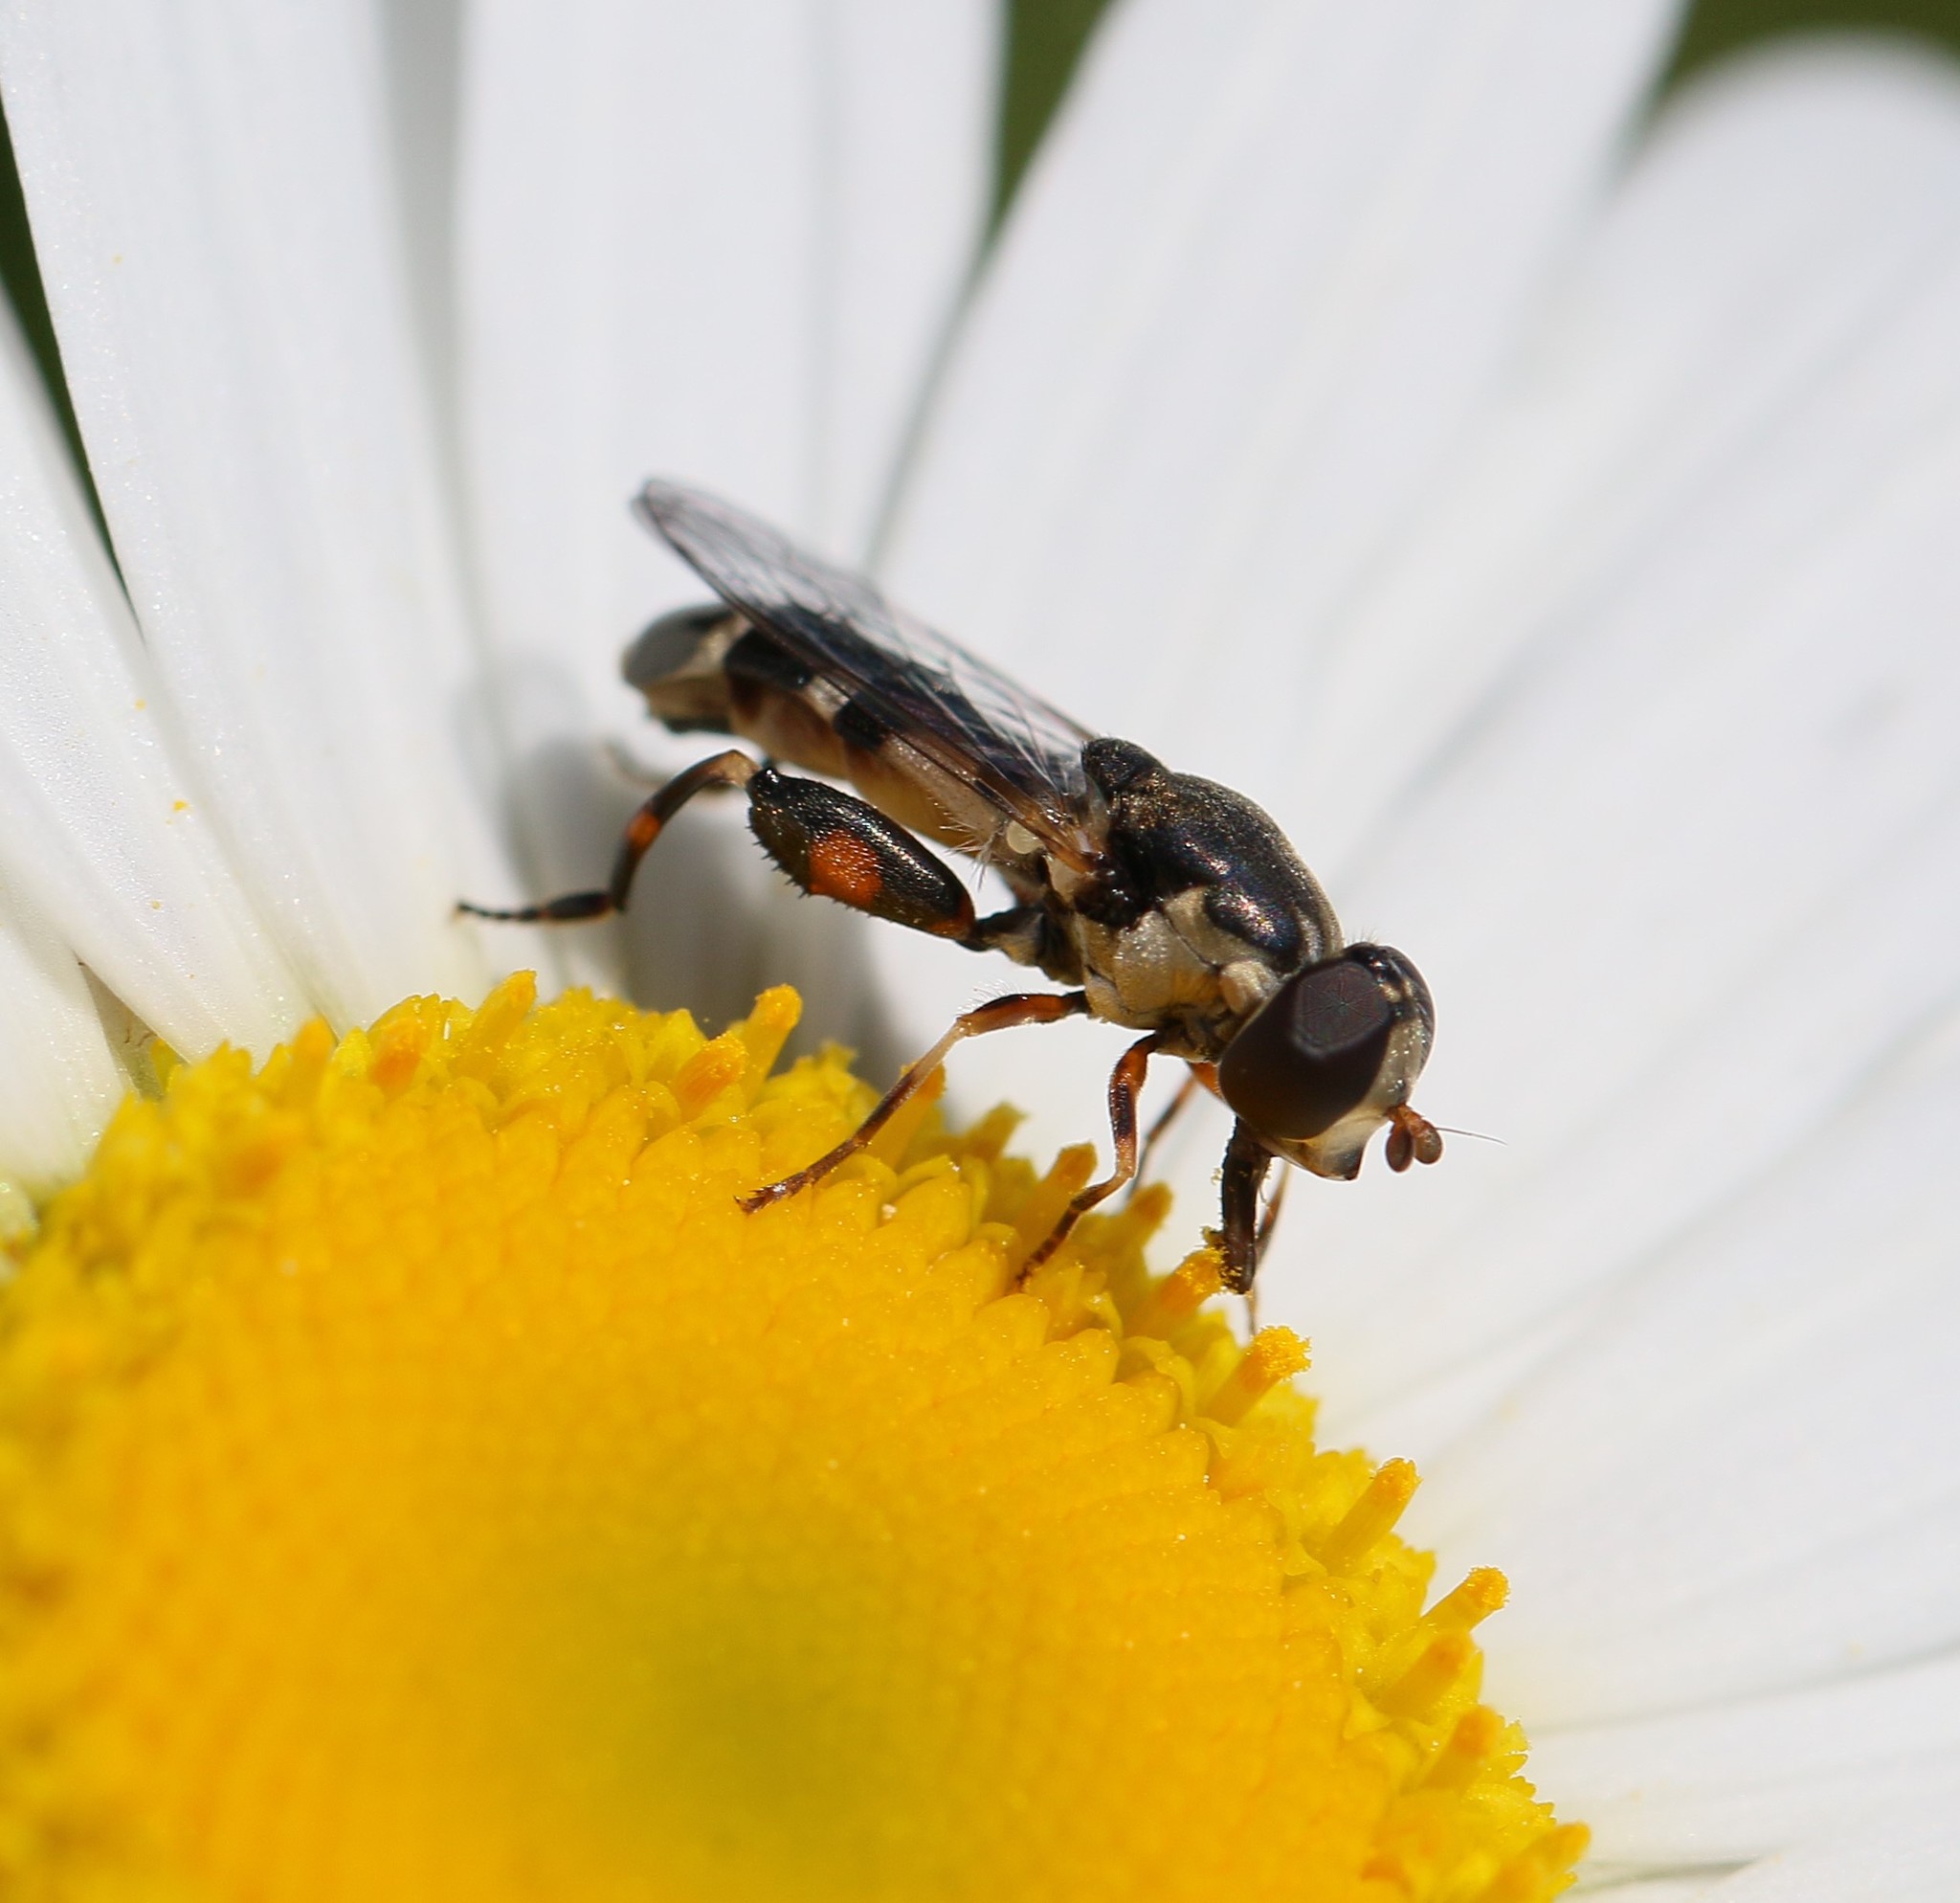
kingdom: Animalia
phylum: Arthropoda
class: Insecta
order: Diptera
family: Syrphidae
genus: Syritta
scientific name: Syritta pipiens
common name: Hover fly
